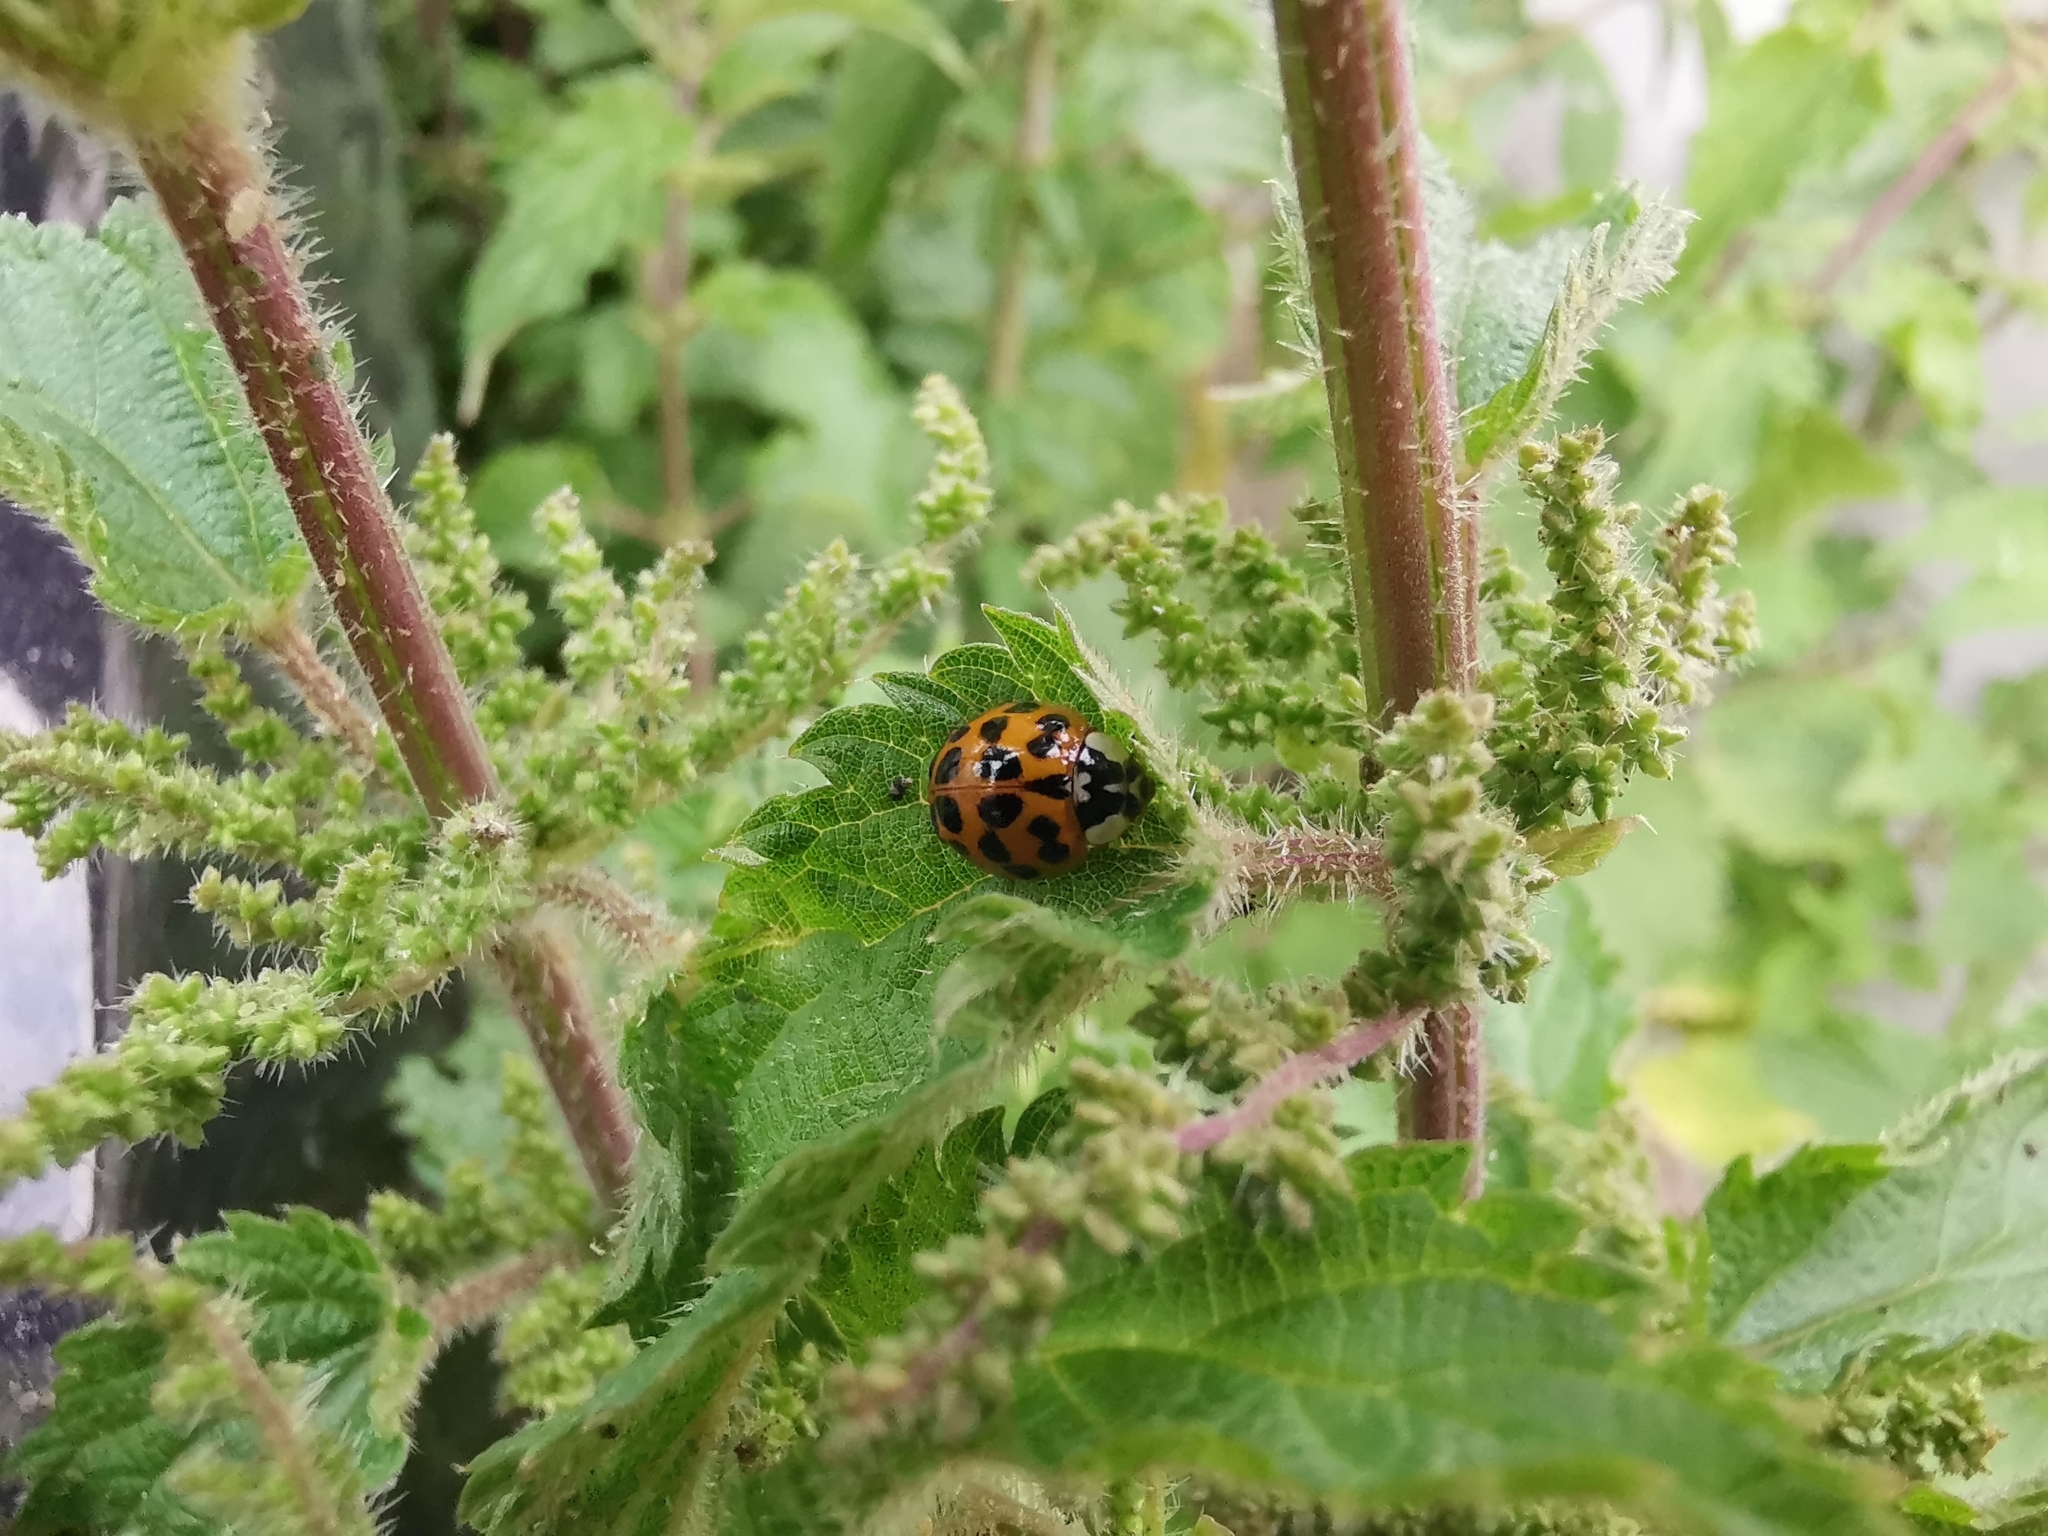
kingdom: Animalia
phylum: Arthropoda
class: Insecta
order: Coleoptera
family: Coccinellidae
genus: Harmonia
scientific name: Harmonia axyridis
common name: Harlequin ladybird
